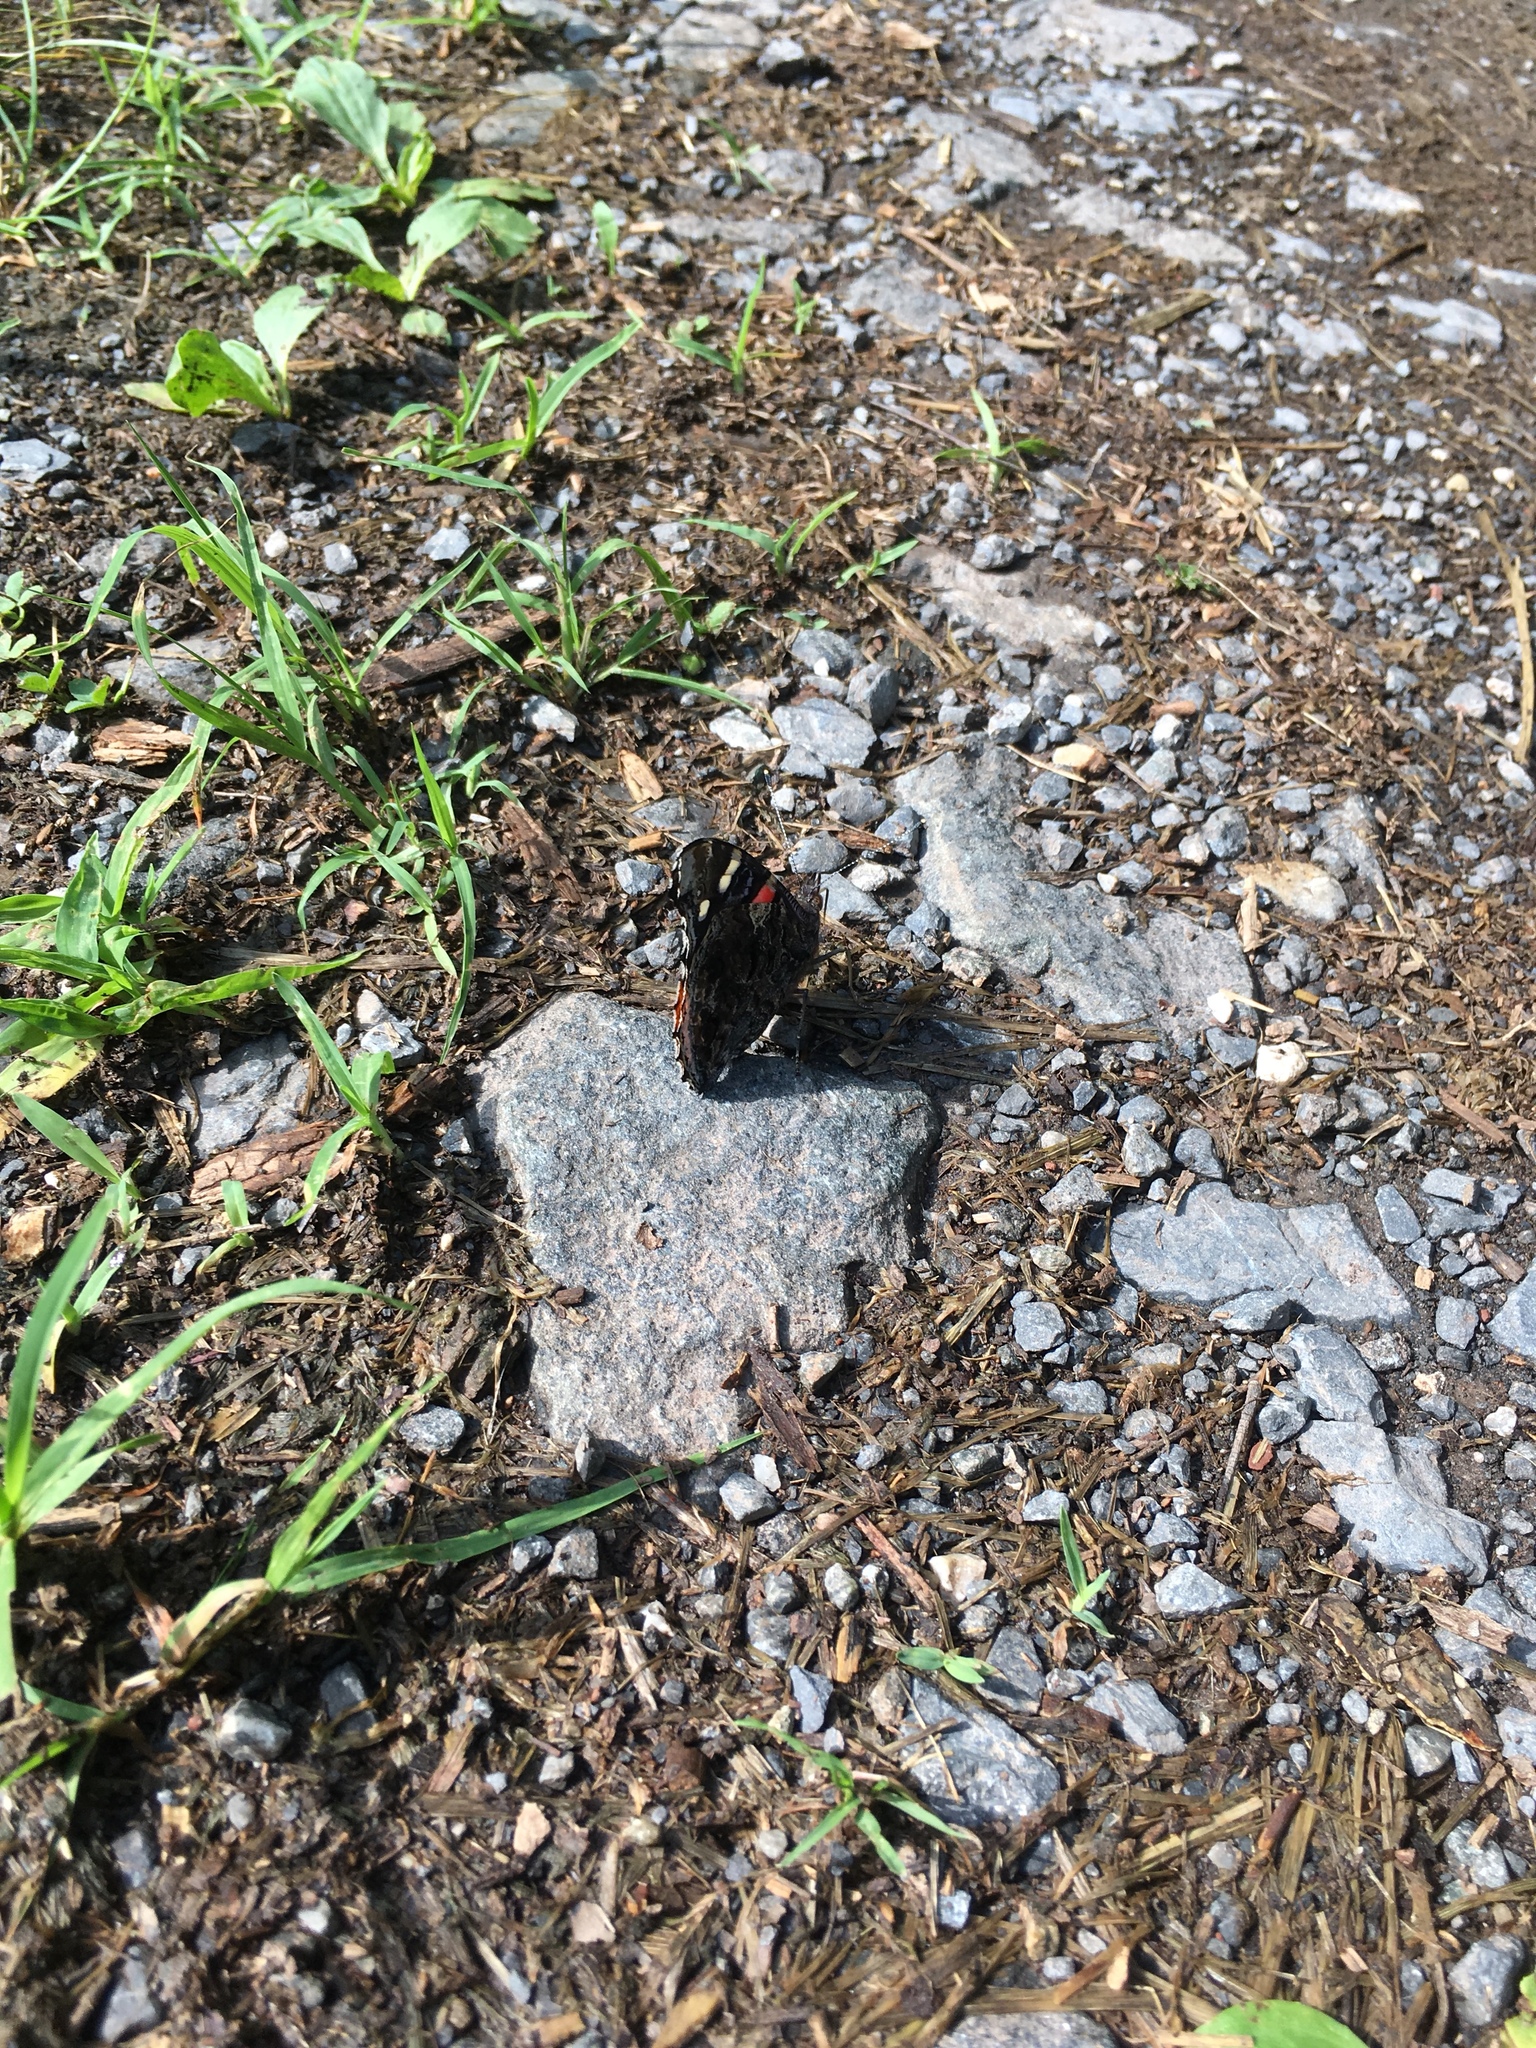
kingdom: Animalia
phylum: Arthropoda
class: Insecta
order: Lepidoptera
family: Nymphalidae
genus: Vanessa
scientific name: Vanessa atalanta
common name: Red admiral
